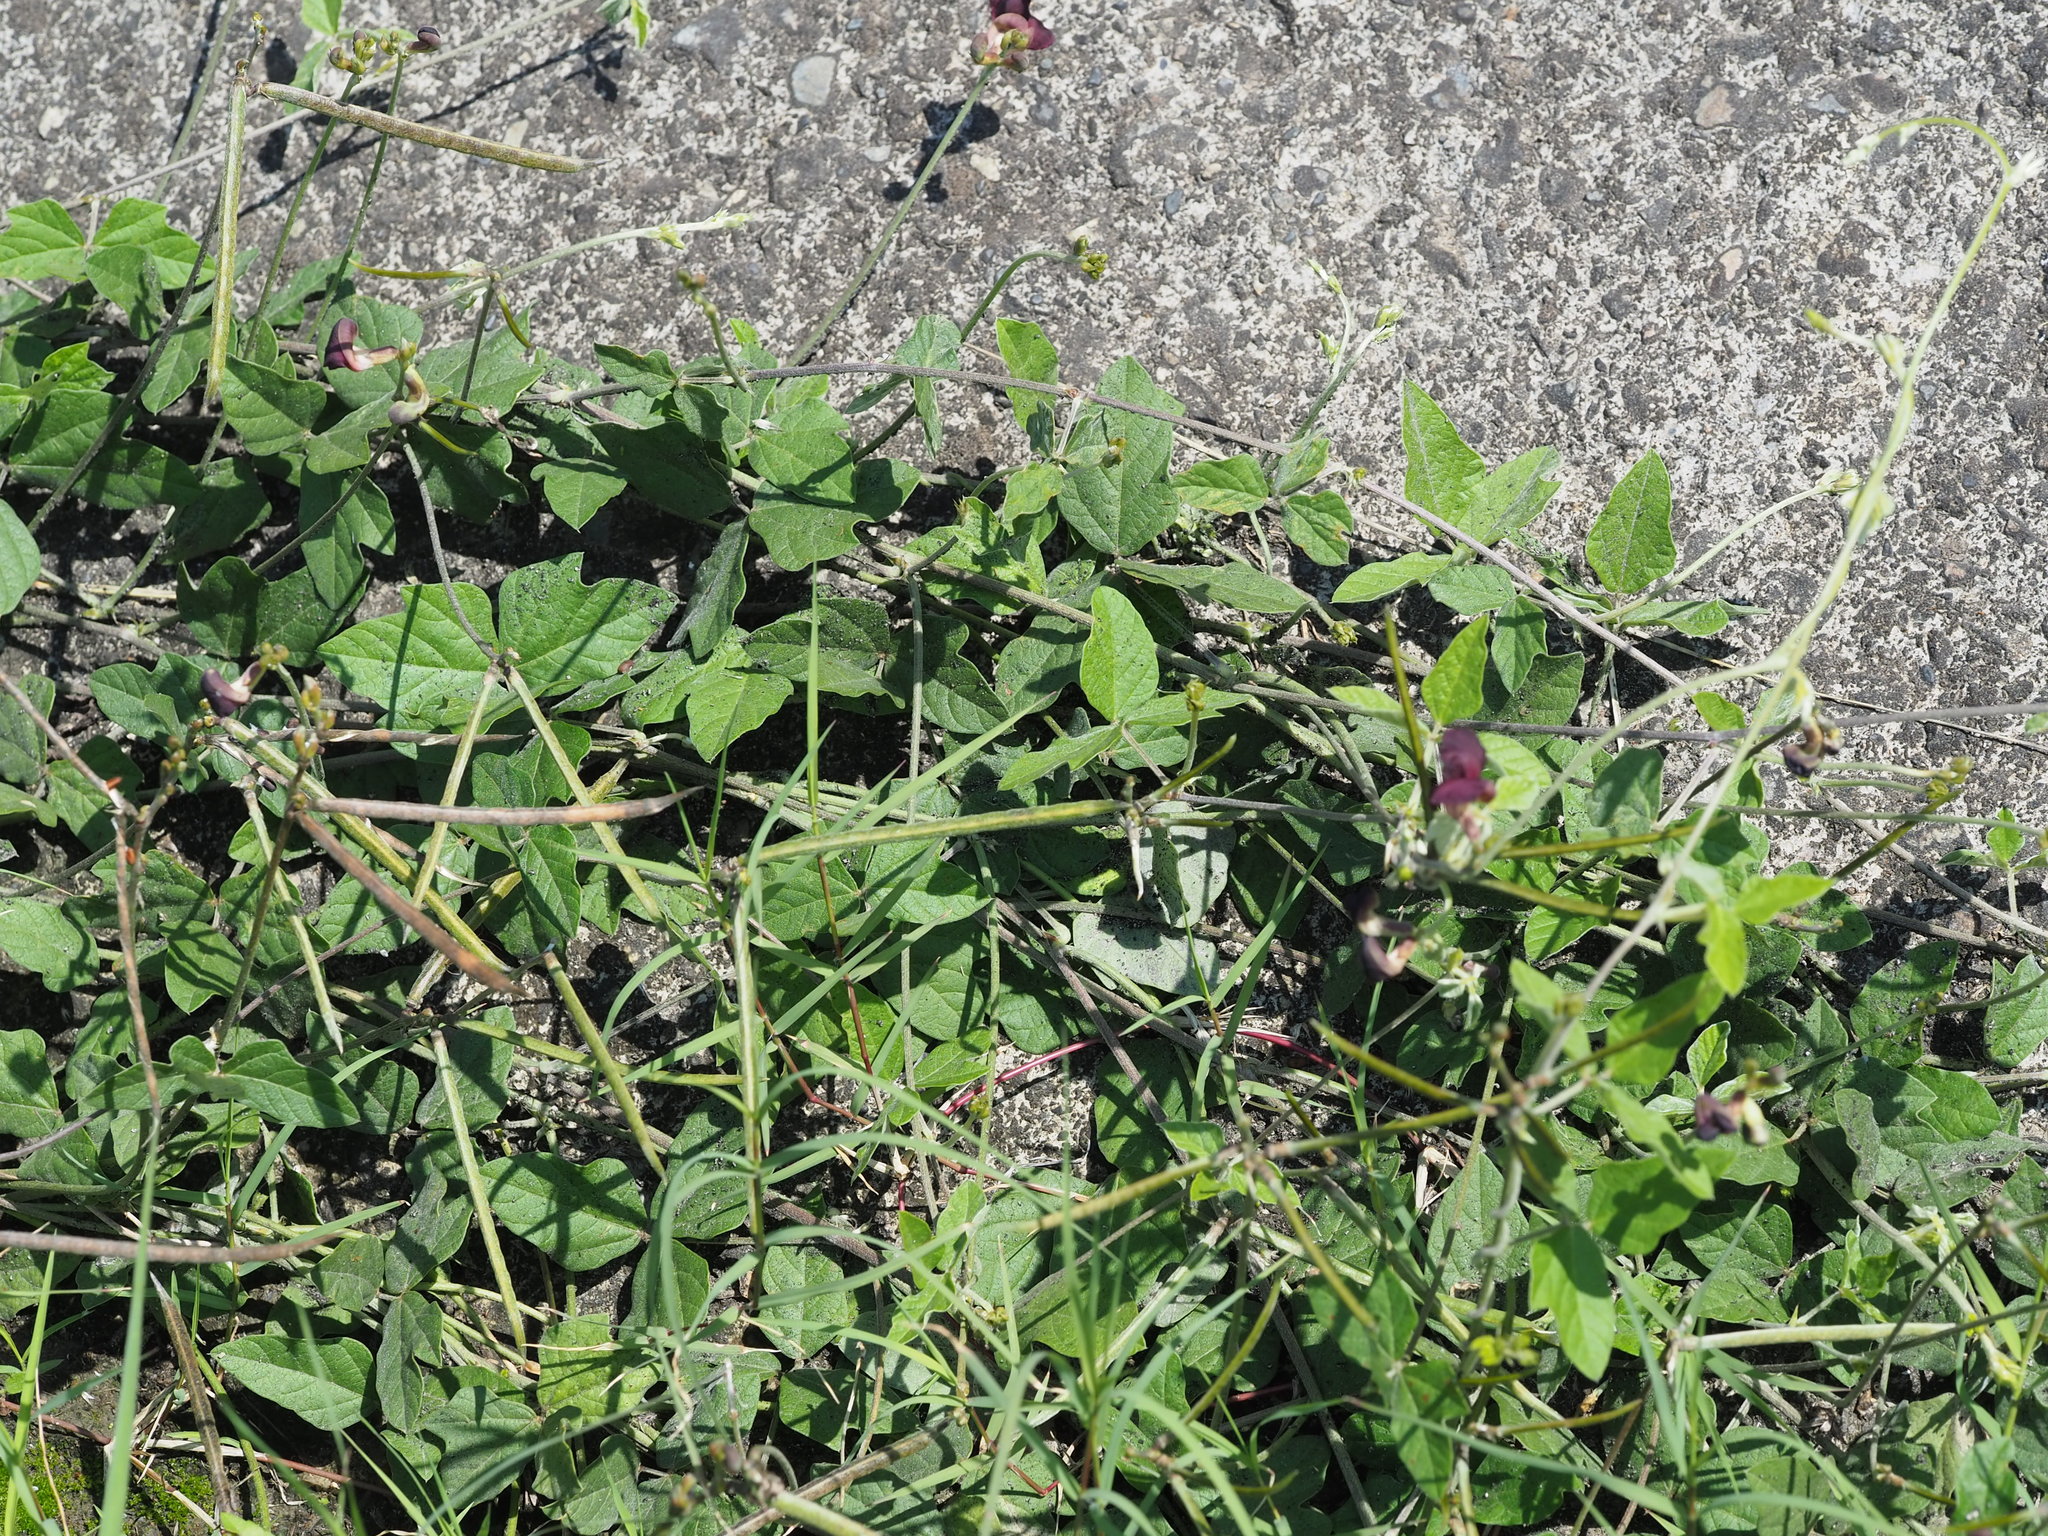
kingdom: Plantae
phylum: Tracheophyta
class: Magnoliopsida
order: Fabales
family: Fabaceae
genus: Macroptilium
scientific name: Macroptilium atropurpureum
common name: Purple bushbean
